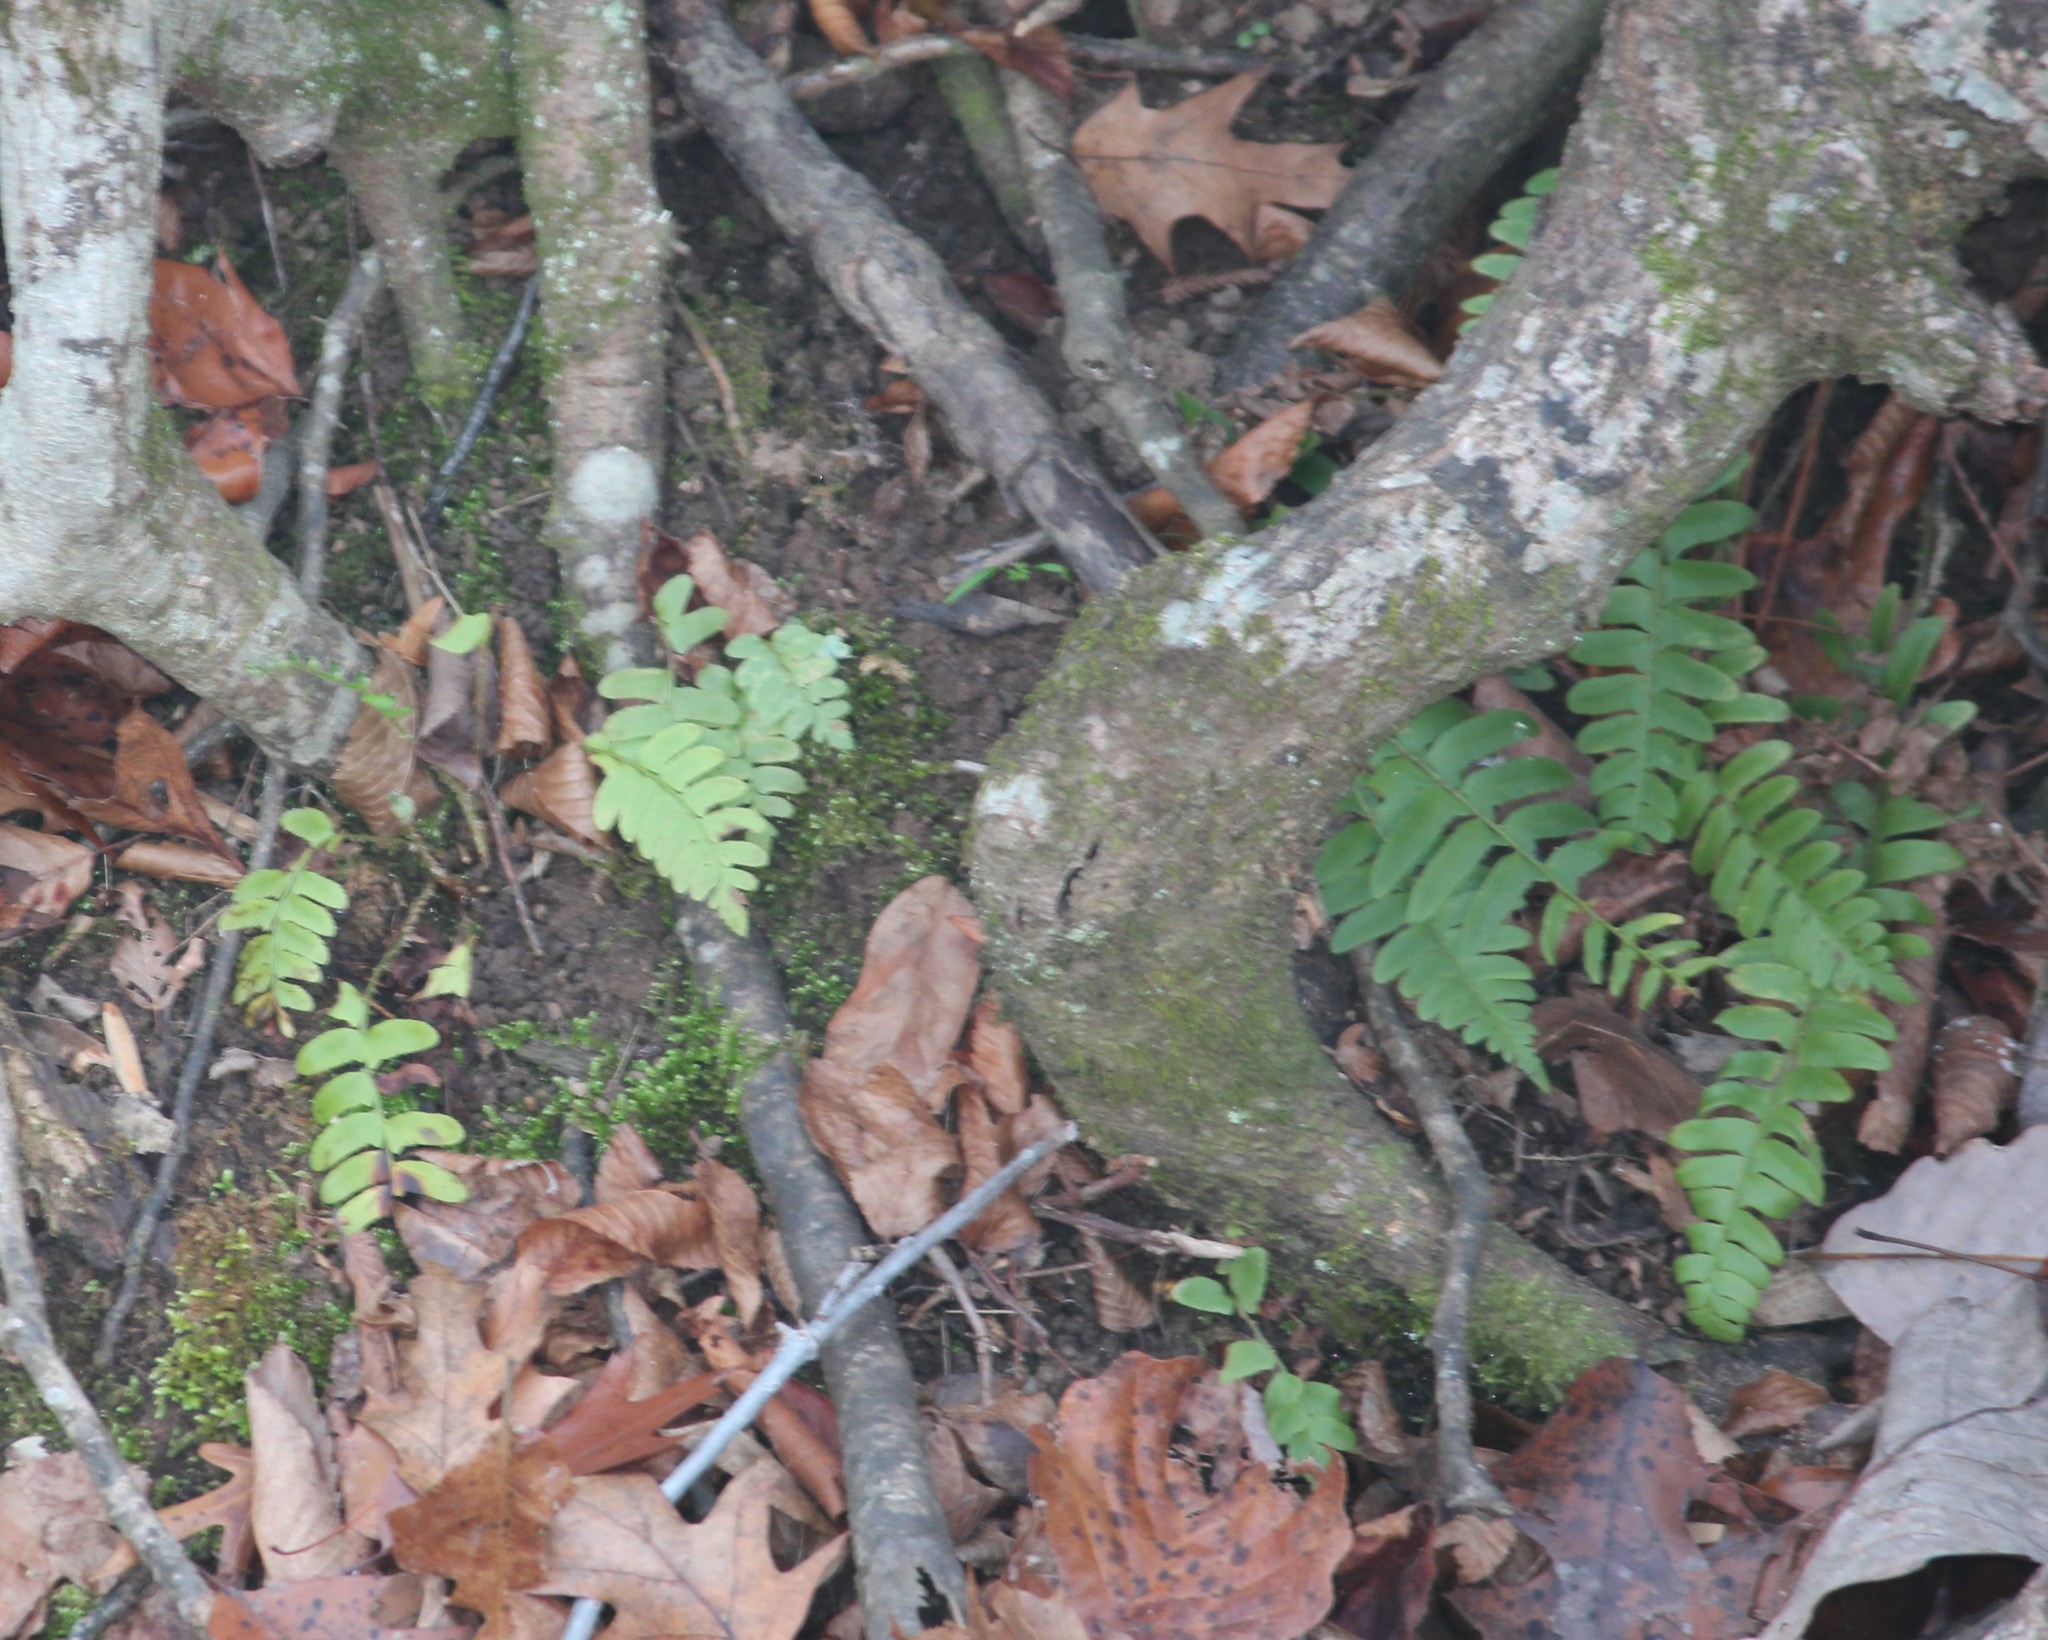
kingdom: Plantae
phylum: Tracheophyta
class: Polypodiopsida
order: Polypodiales
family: Dryopteridaceae
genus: Polystichum
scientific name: Polystichum acrostichoides
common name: Christmas fern
